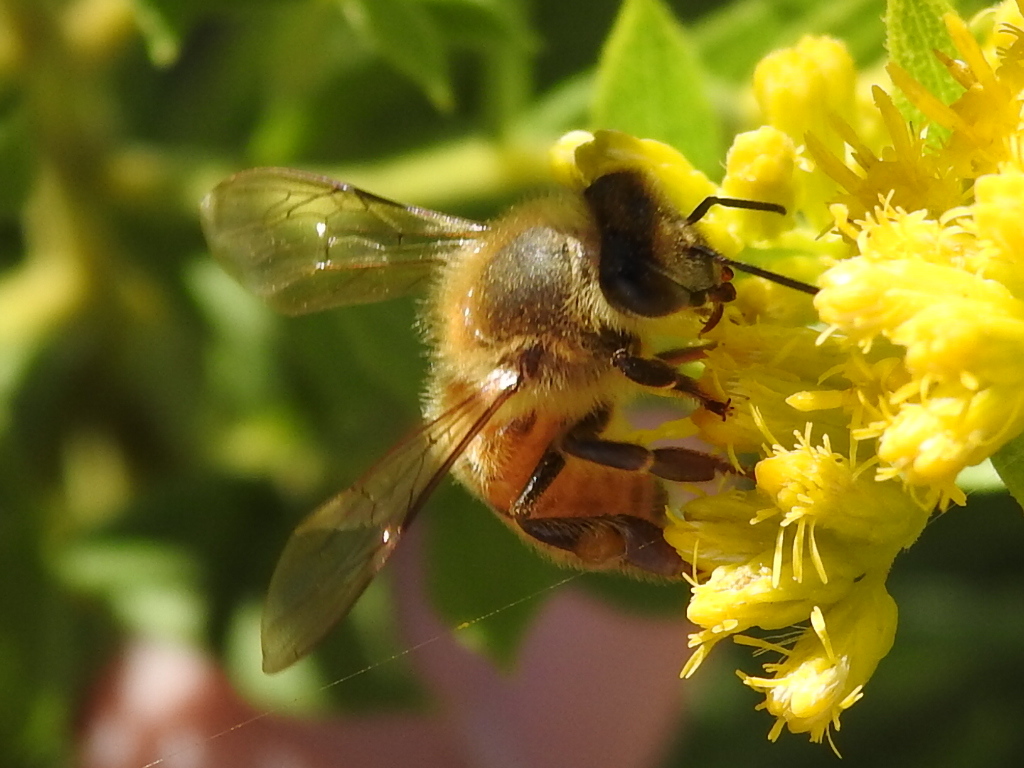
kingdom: Animalia
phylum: Arthropoda
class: Insecta
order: Hymenoptera
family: Apidae
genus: Apis
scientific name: Apis mellifera
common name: Honey bee
